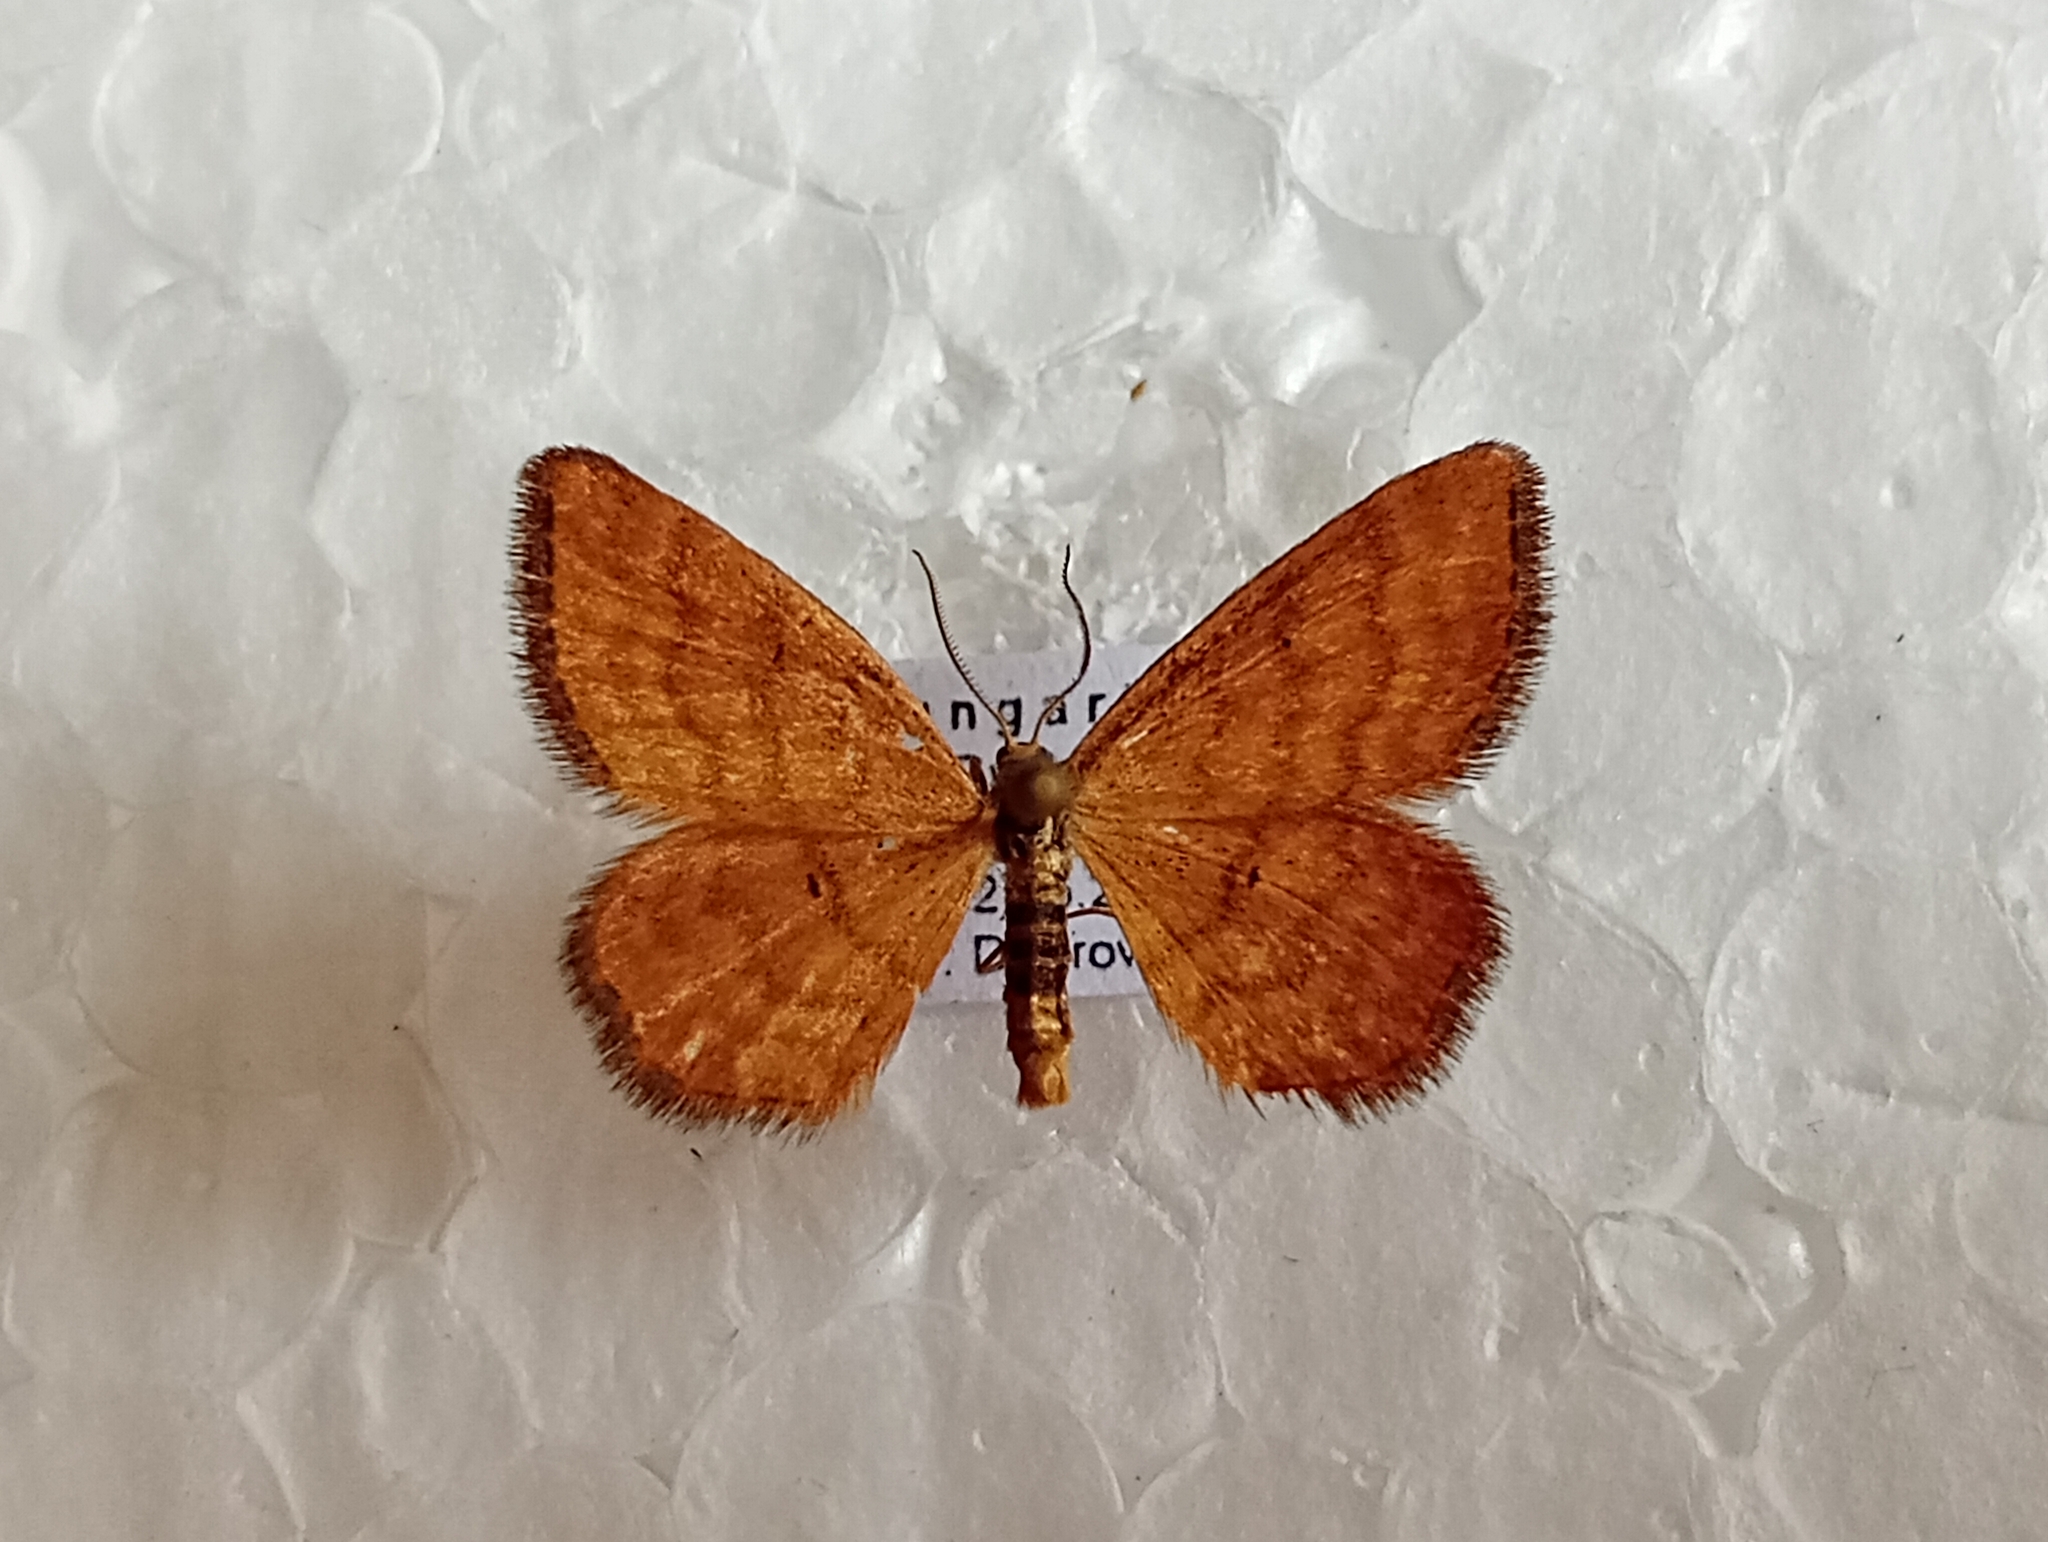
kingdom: Animalia
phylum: Arthropoda
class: Insecta
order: Lepidoptera
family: Geometridae
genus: Idaea
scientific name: Idaea serpentata
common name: Ochraceous wave
